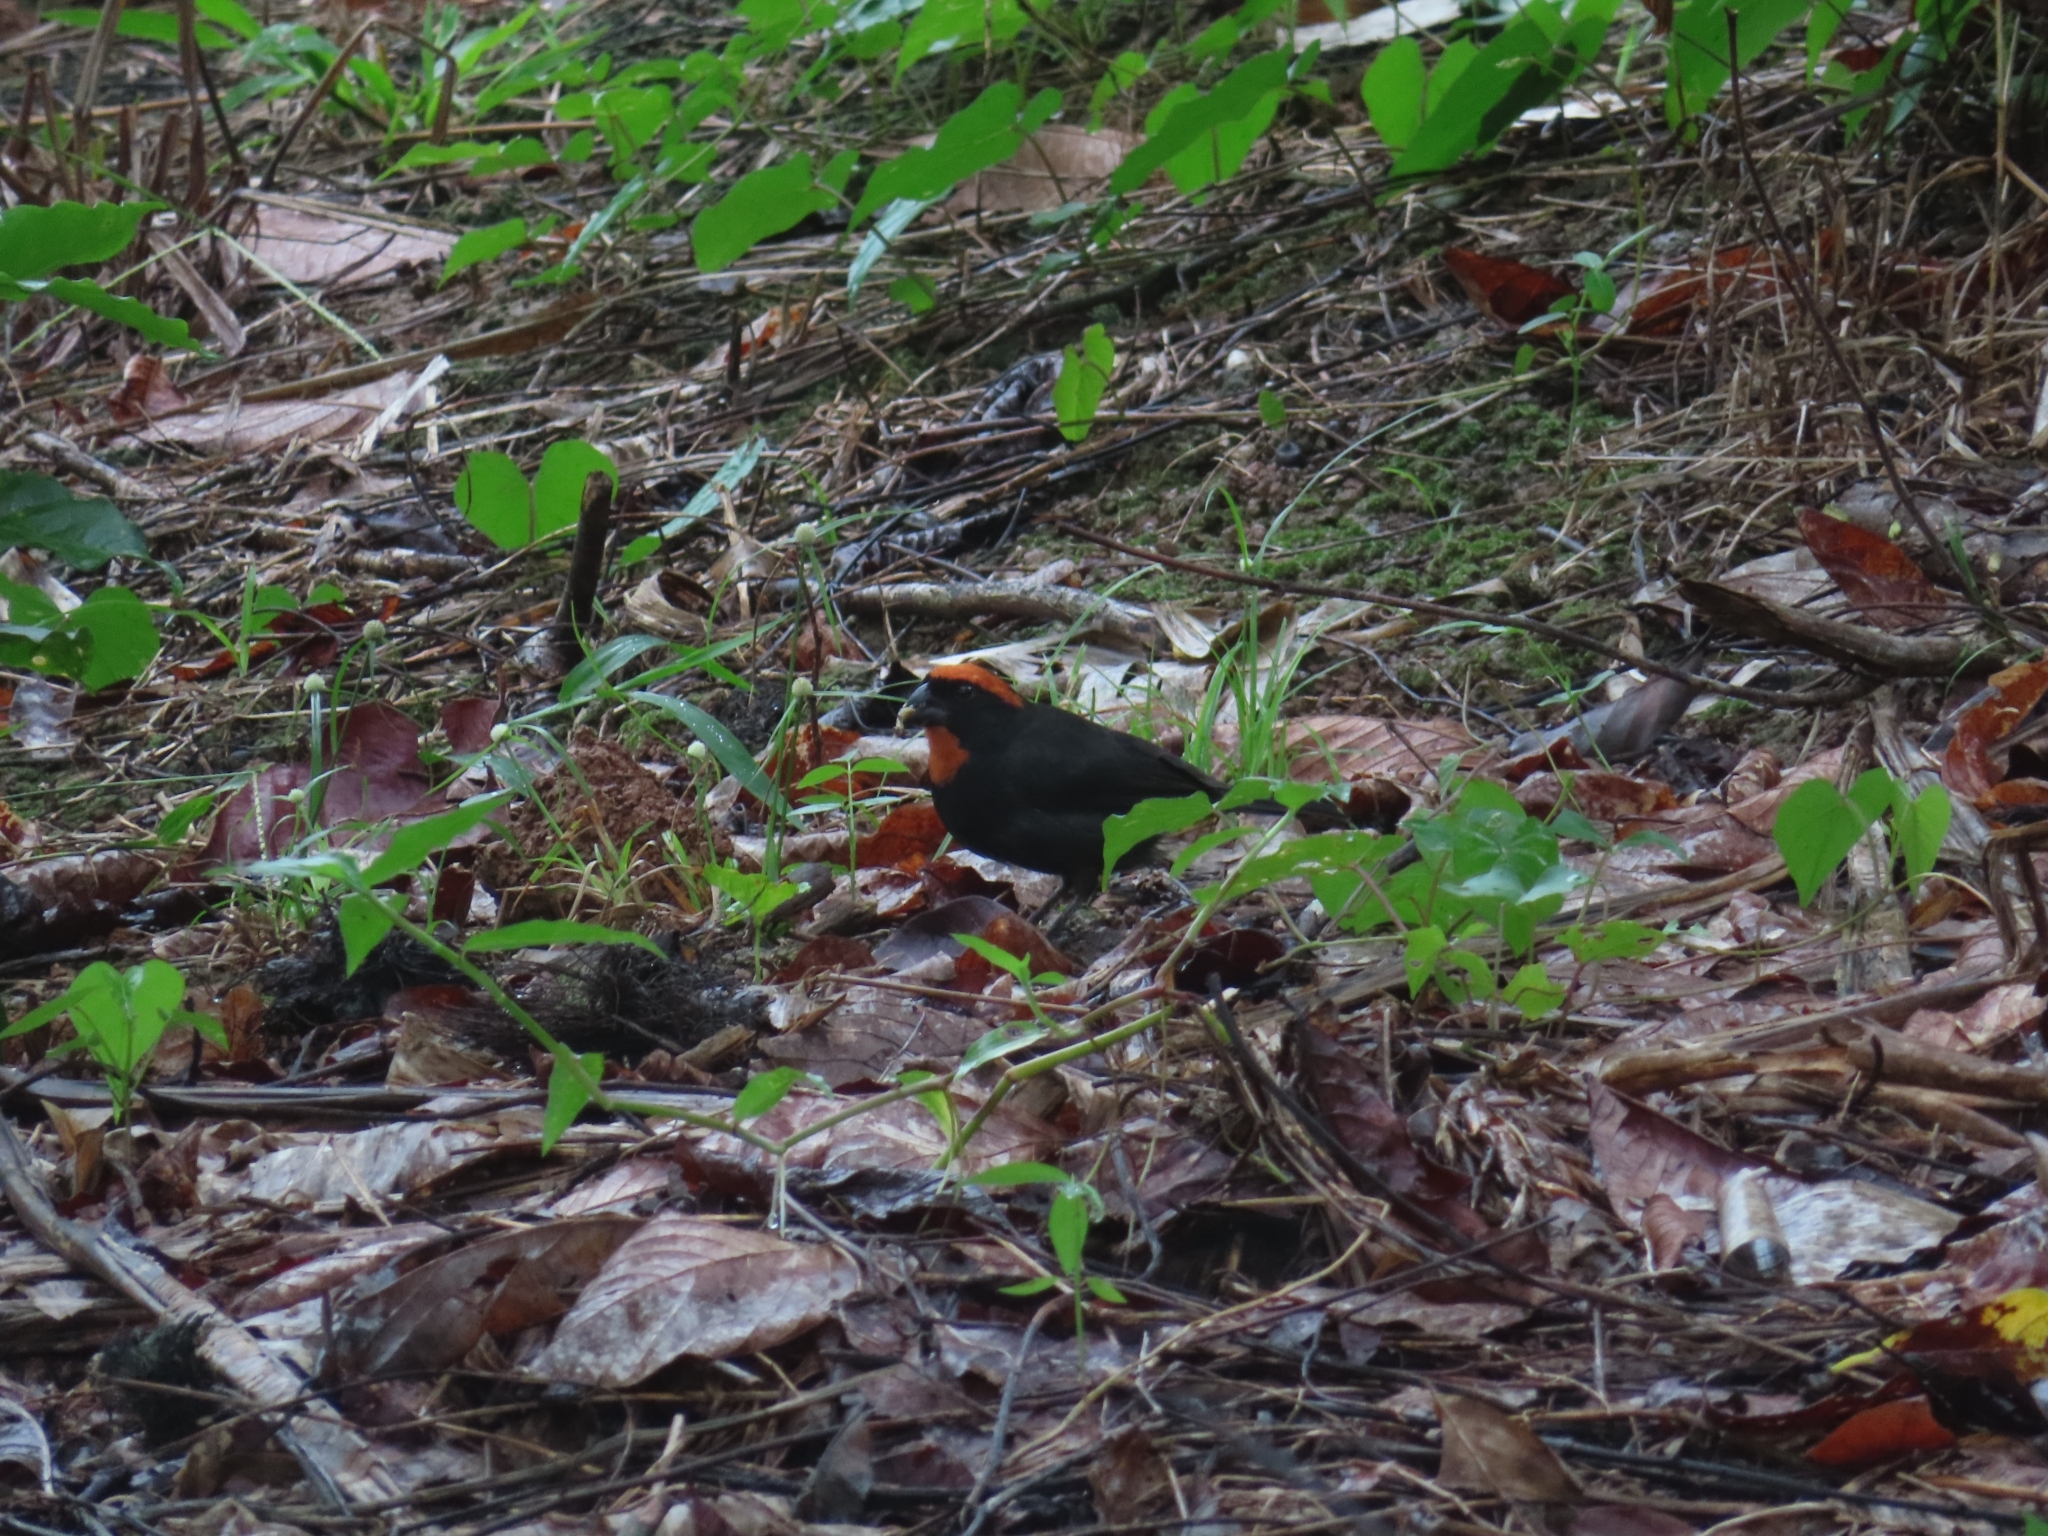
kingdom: Animalia
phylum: Chordata
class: Aves
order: Passeriformes
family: Thraupidae
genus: Melopyrrha
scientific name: Melopyrrha portoricensis
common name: Puerto rican bullfinch
